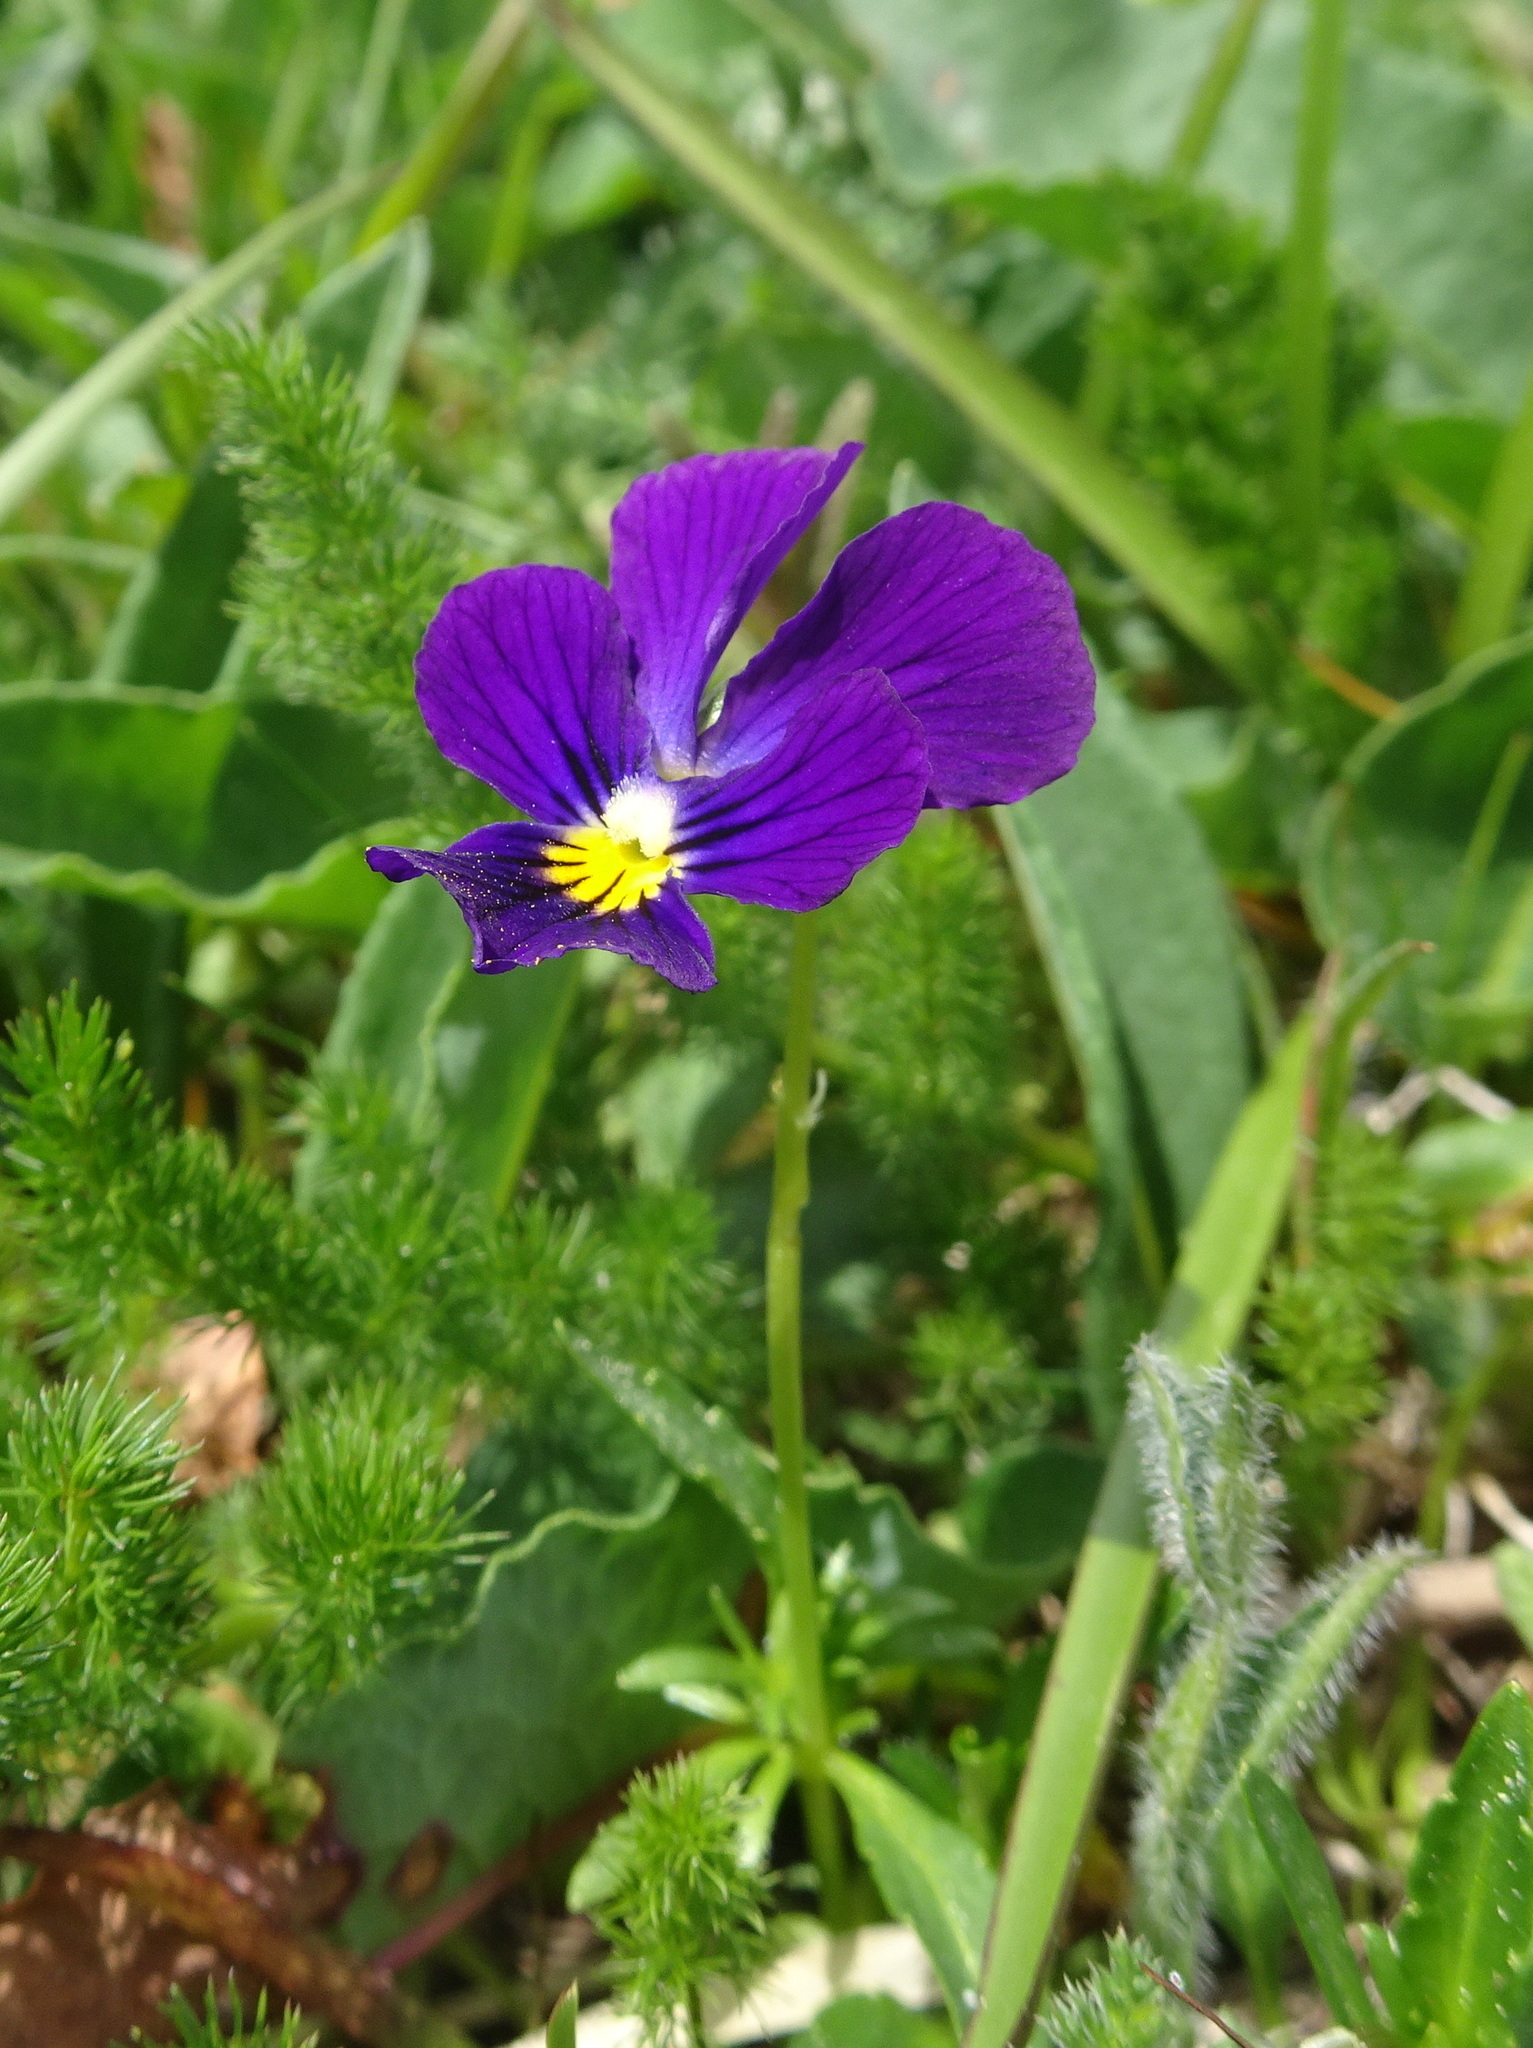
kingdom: Plantae
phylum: Tracheophyta
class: Magnoliopsida
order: Malpighiales
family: Violaceae
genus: Viola
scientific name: Viola lutea
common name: Mountain pansy
